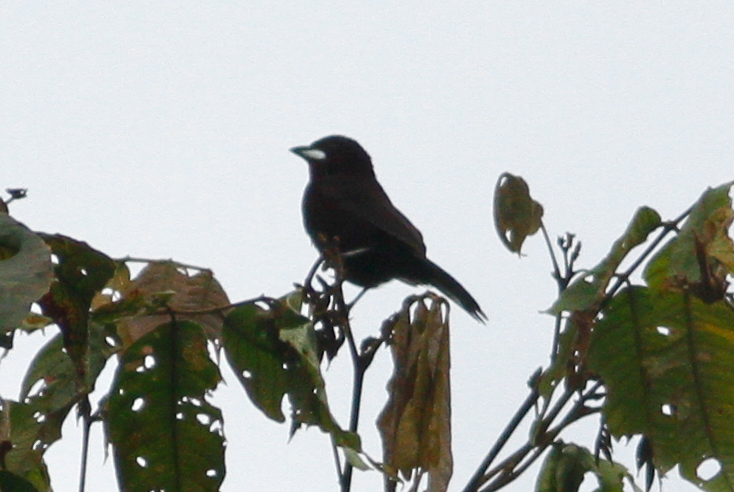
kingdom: Animalia
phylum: Chordata
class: Aves
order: Passeriformes
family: Thraupidae
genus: Ramphocelus
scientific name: Ramphocelus carbo
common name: Silver-beaked tanager
